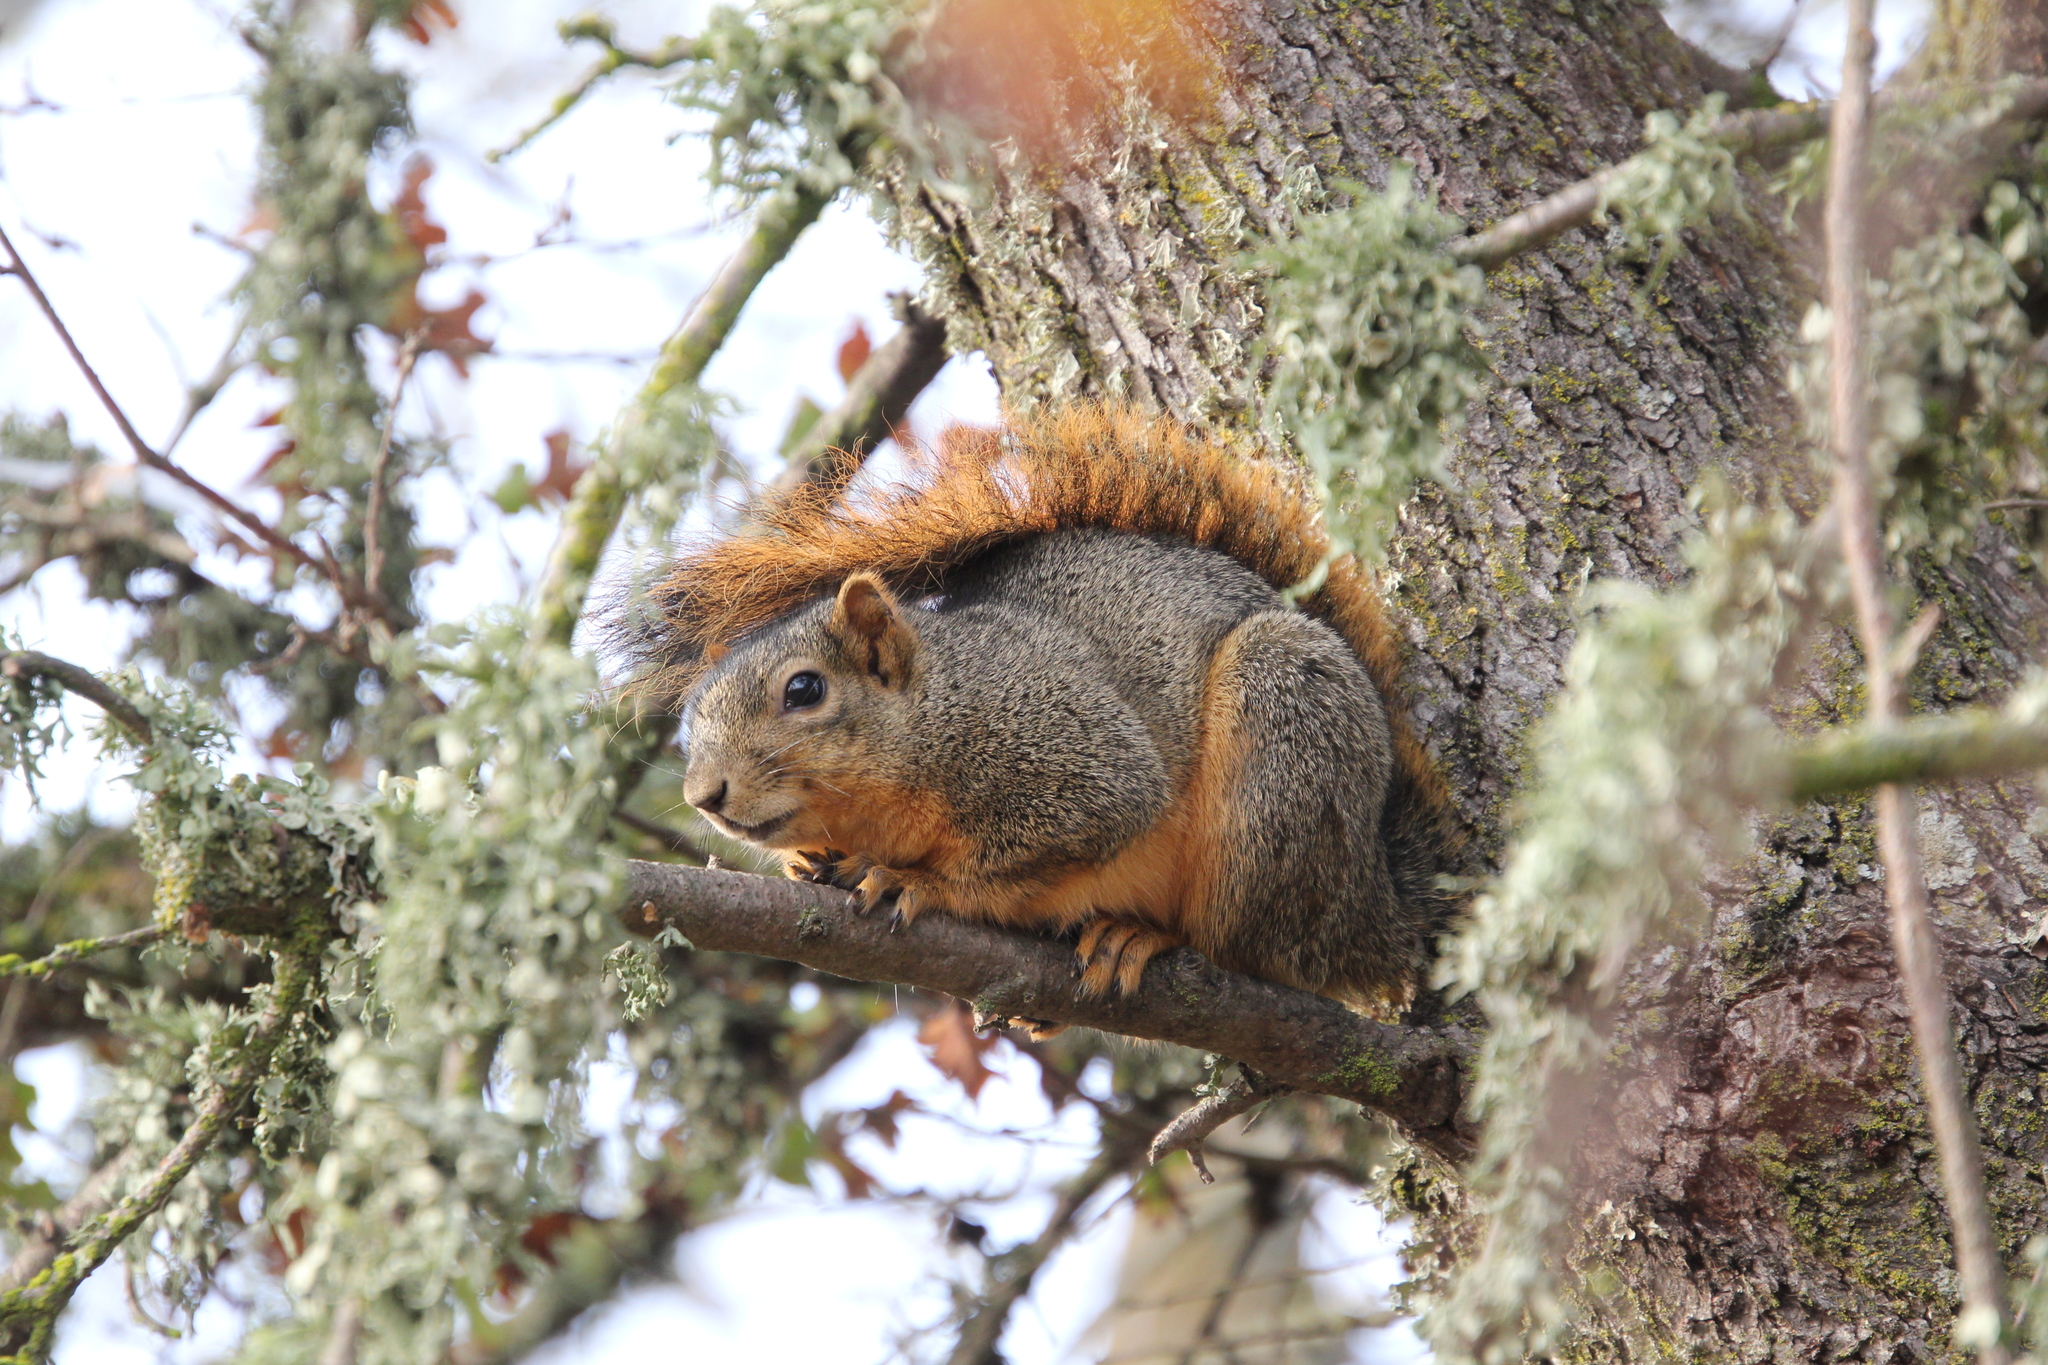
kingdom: Animalia
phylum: Chordata
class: Mammalia
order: Rodentia
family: Sciuridae
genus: Sciurus
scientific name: Sciurus niger
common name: Fox squirrel
